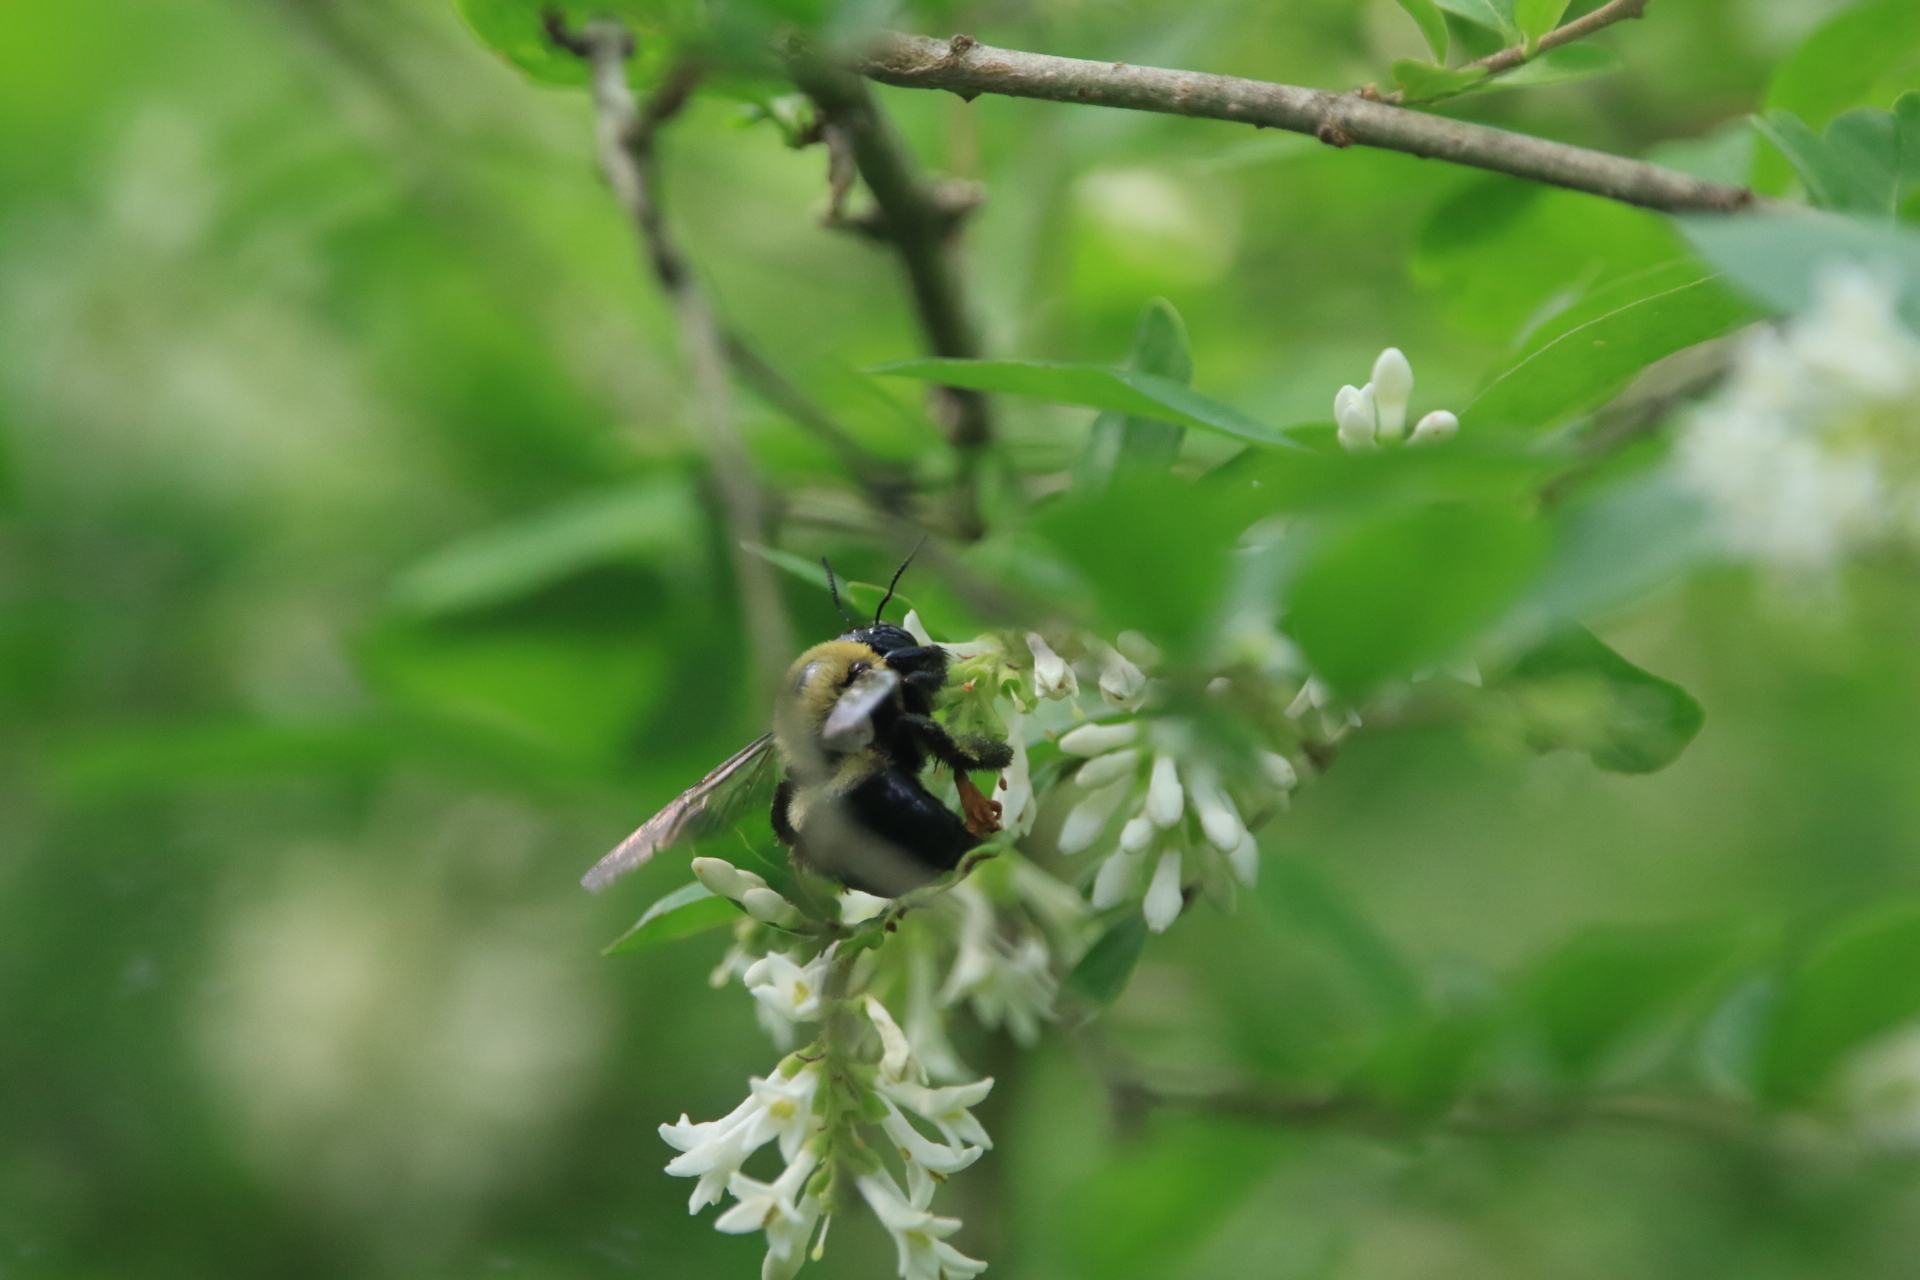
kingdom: Animalia
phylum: Arthropoda
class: Insecta
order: Hymenoptera
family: Apidae
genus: Xylocopa
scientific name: Xylocopa virginica
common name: Carpenter bee
